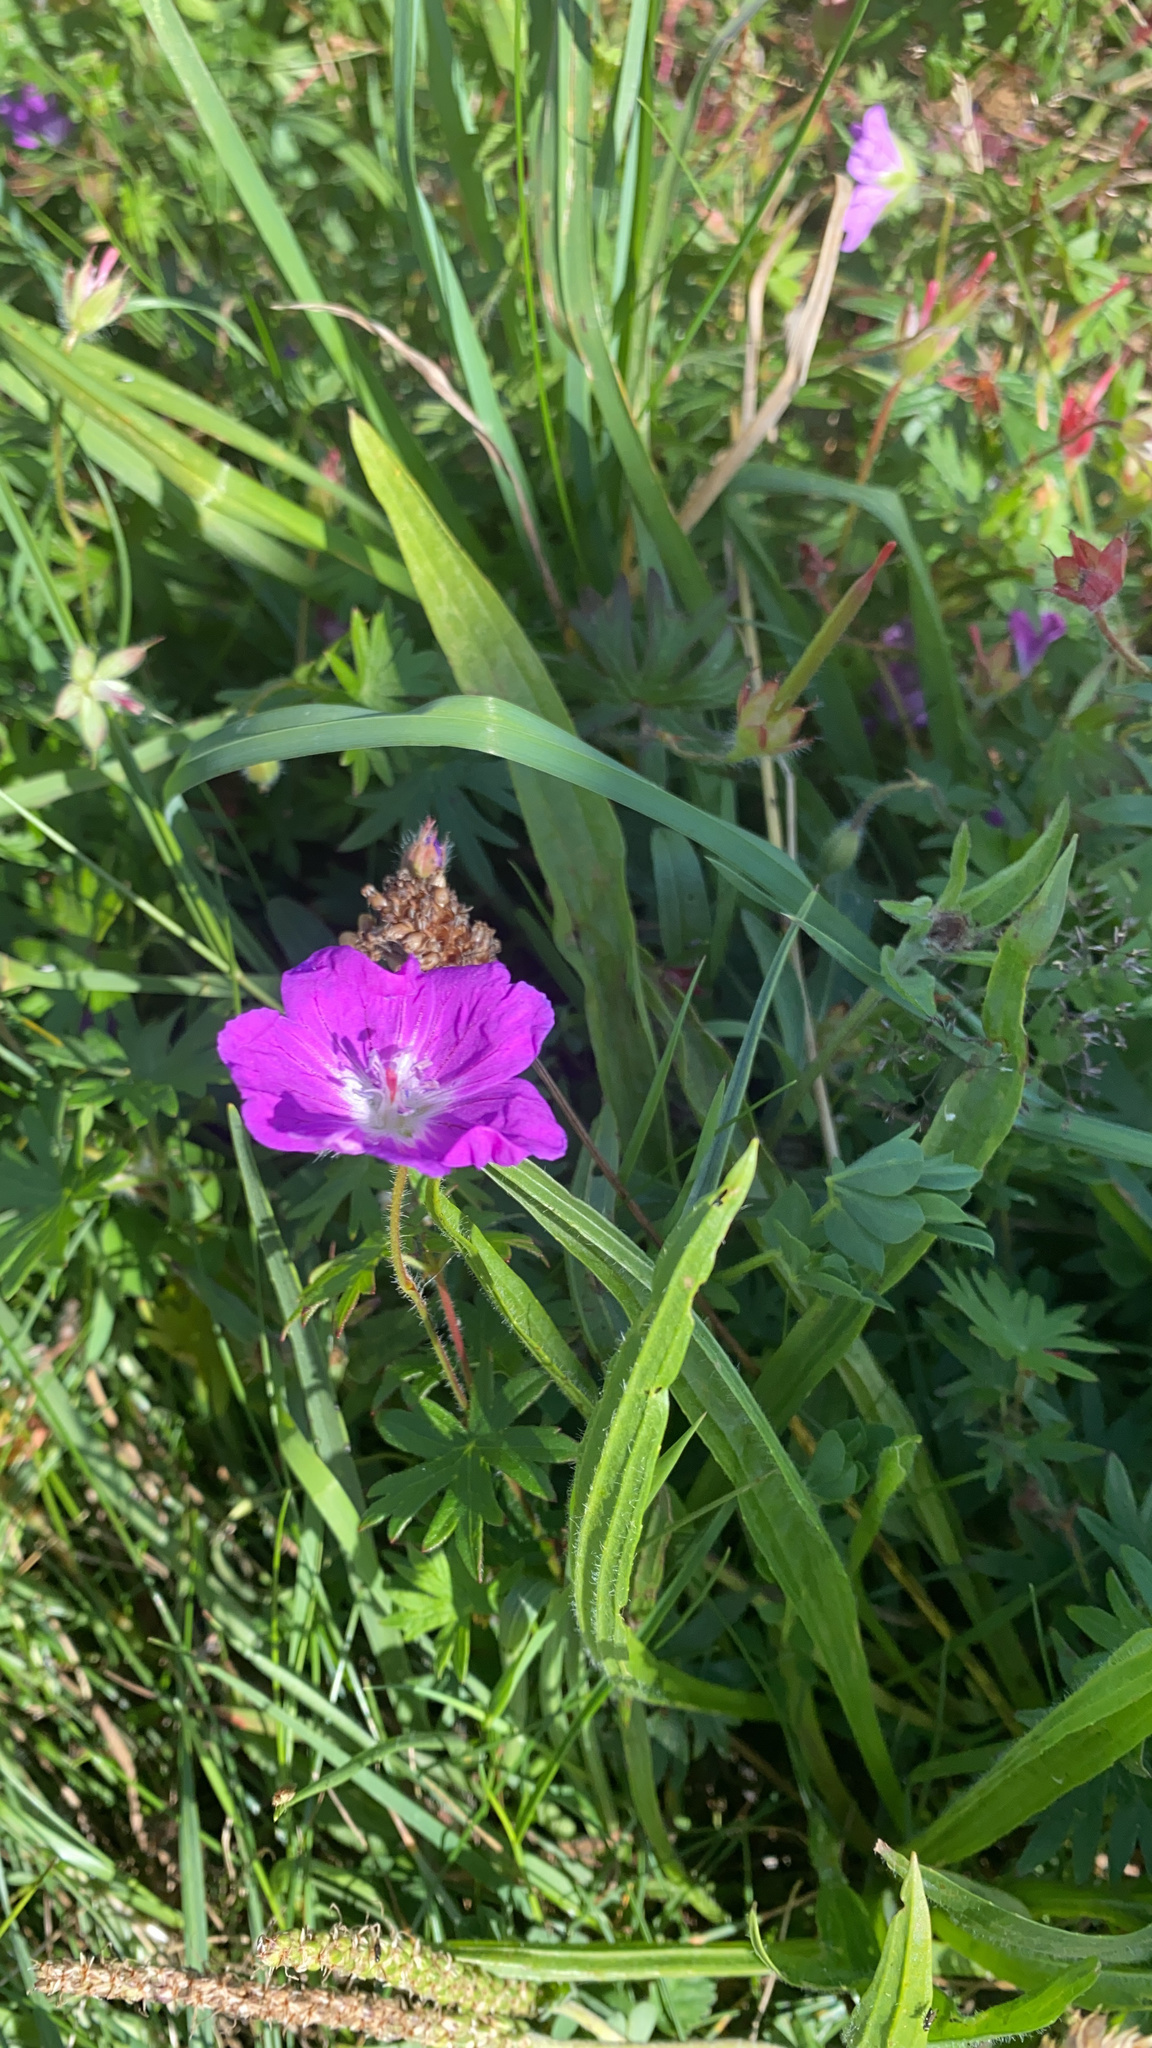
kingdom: Plantae
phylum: Tracheophyta
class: Magnoliopsida
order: Geraniales
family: Geraniaceae
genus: Geranium
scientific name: Geranium sanguineum
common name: Bloody crane's-bill
